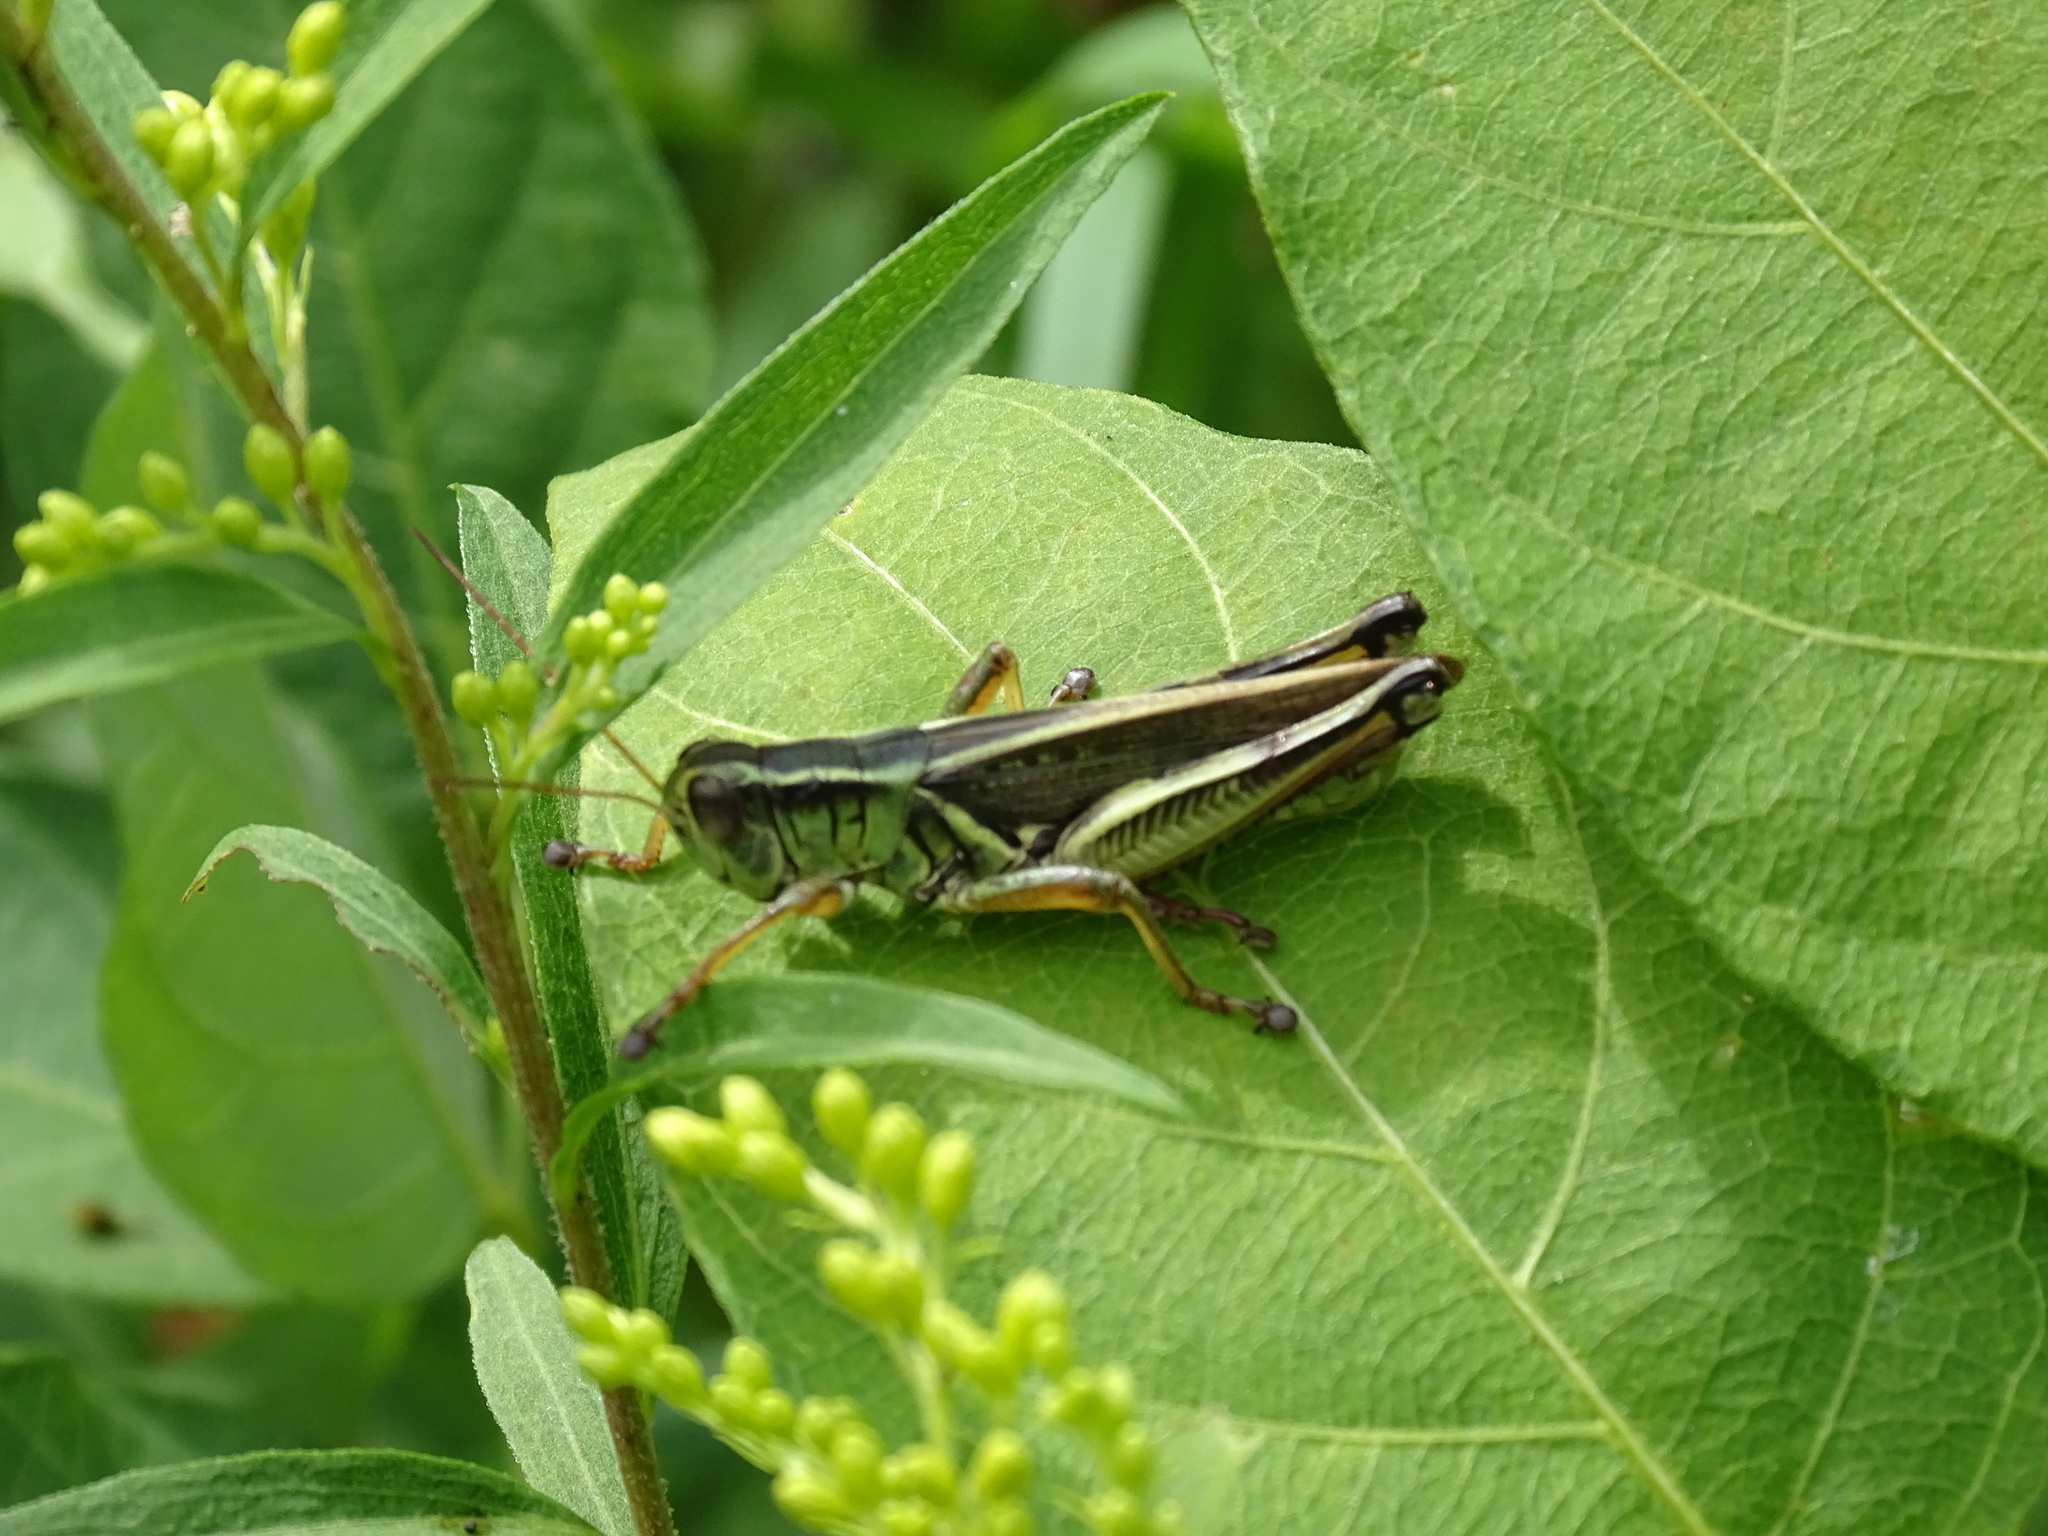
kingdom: Animalia
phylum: Arthropoda
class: Insecta
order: Orthoptera
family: Acrididae
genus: Melanoplus
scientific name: Melanoplus bivittatus
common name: Two-striped grasshopper
